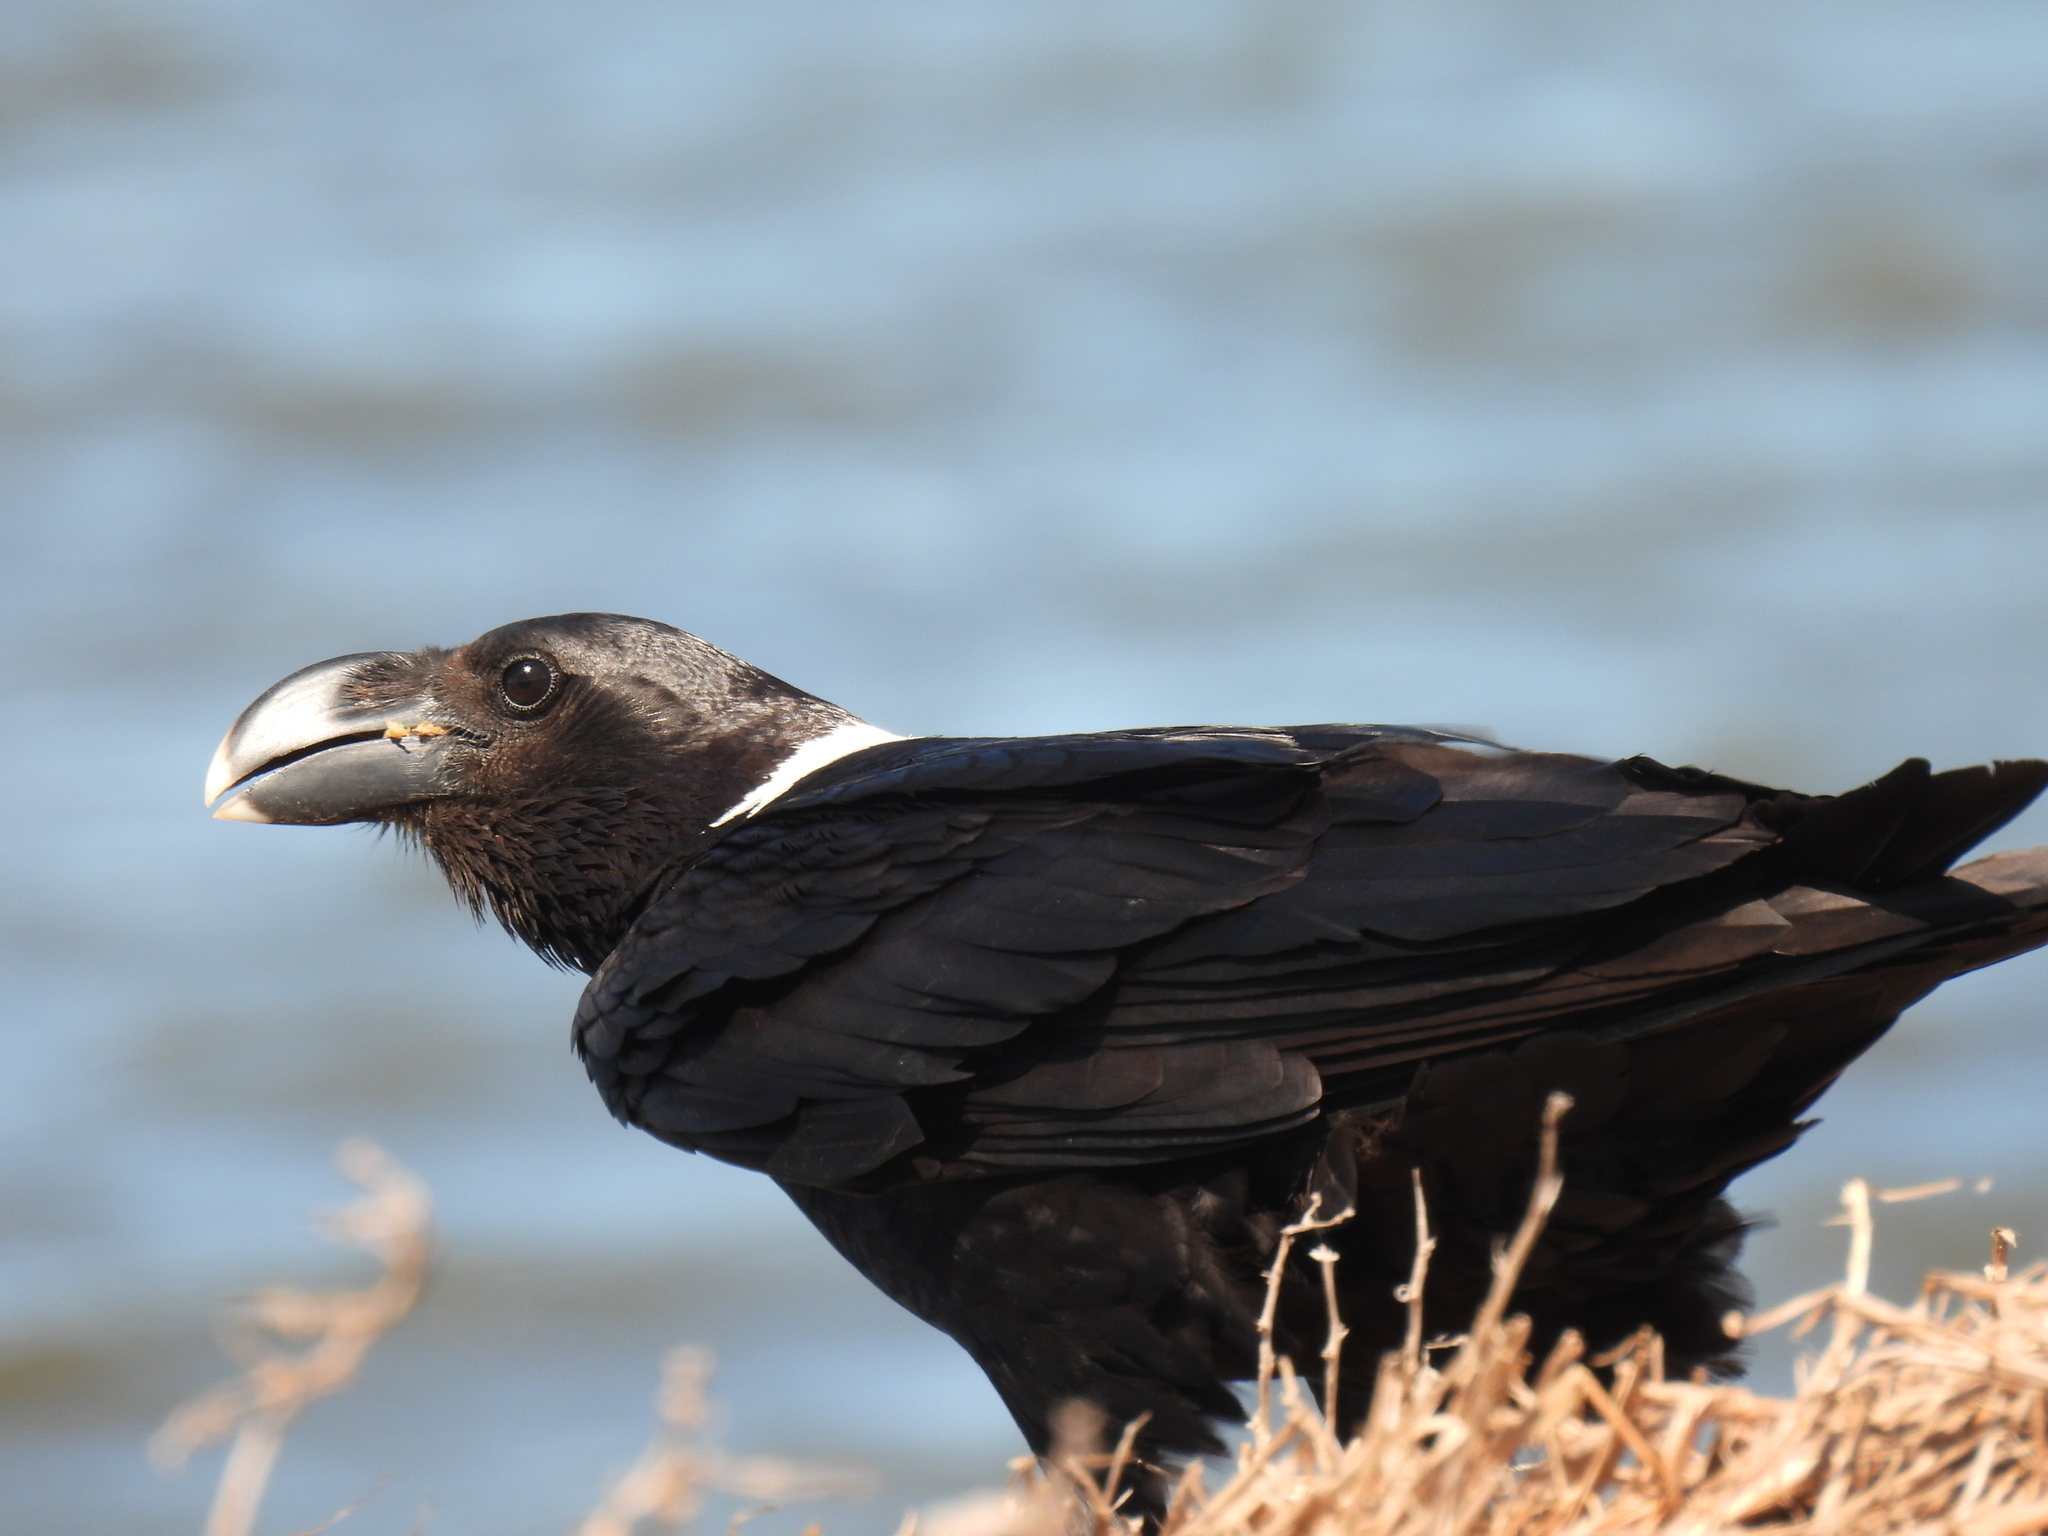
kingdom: Animalia
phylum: Chordata
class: Aves
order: Passeriformes
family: Corvidae
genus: Corvus
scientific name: Corvus albicollis
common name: White-necked raven
